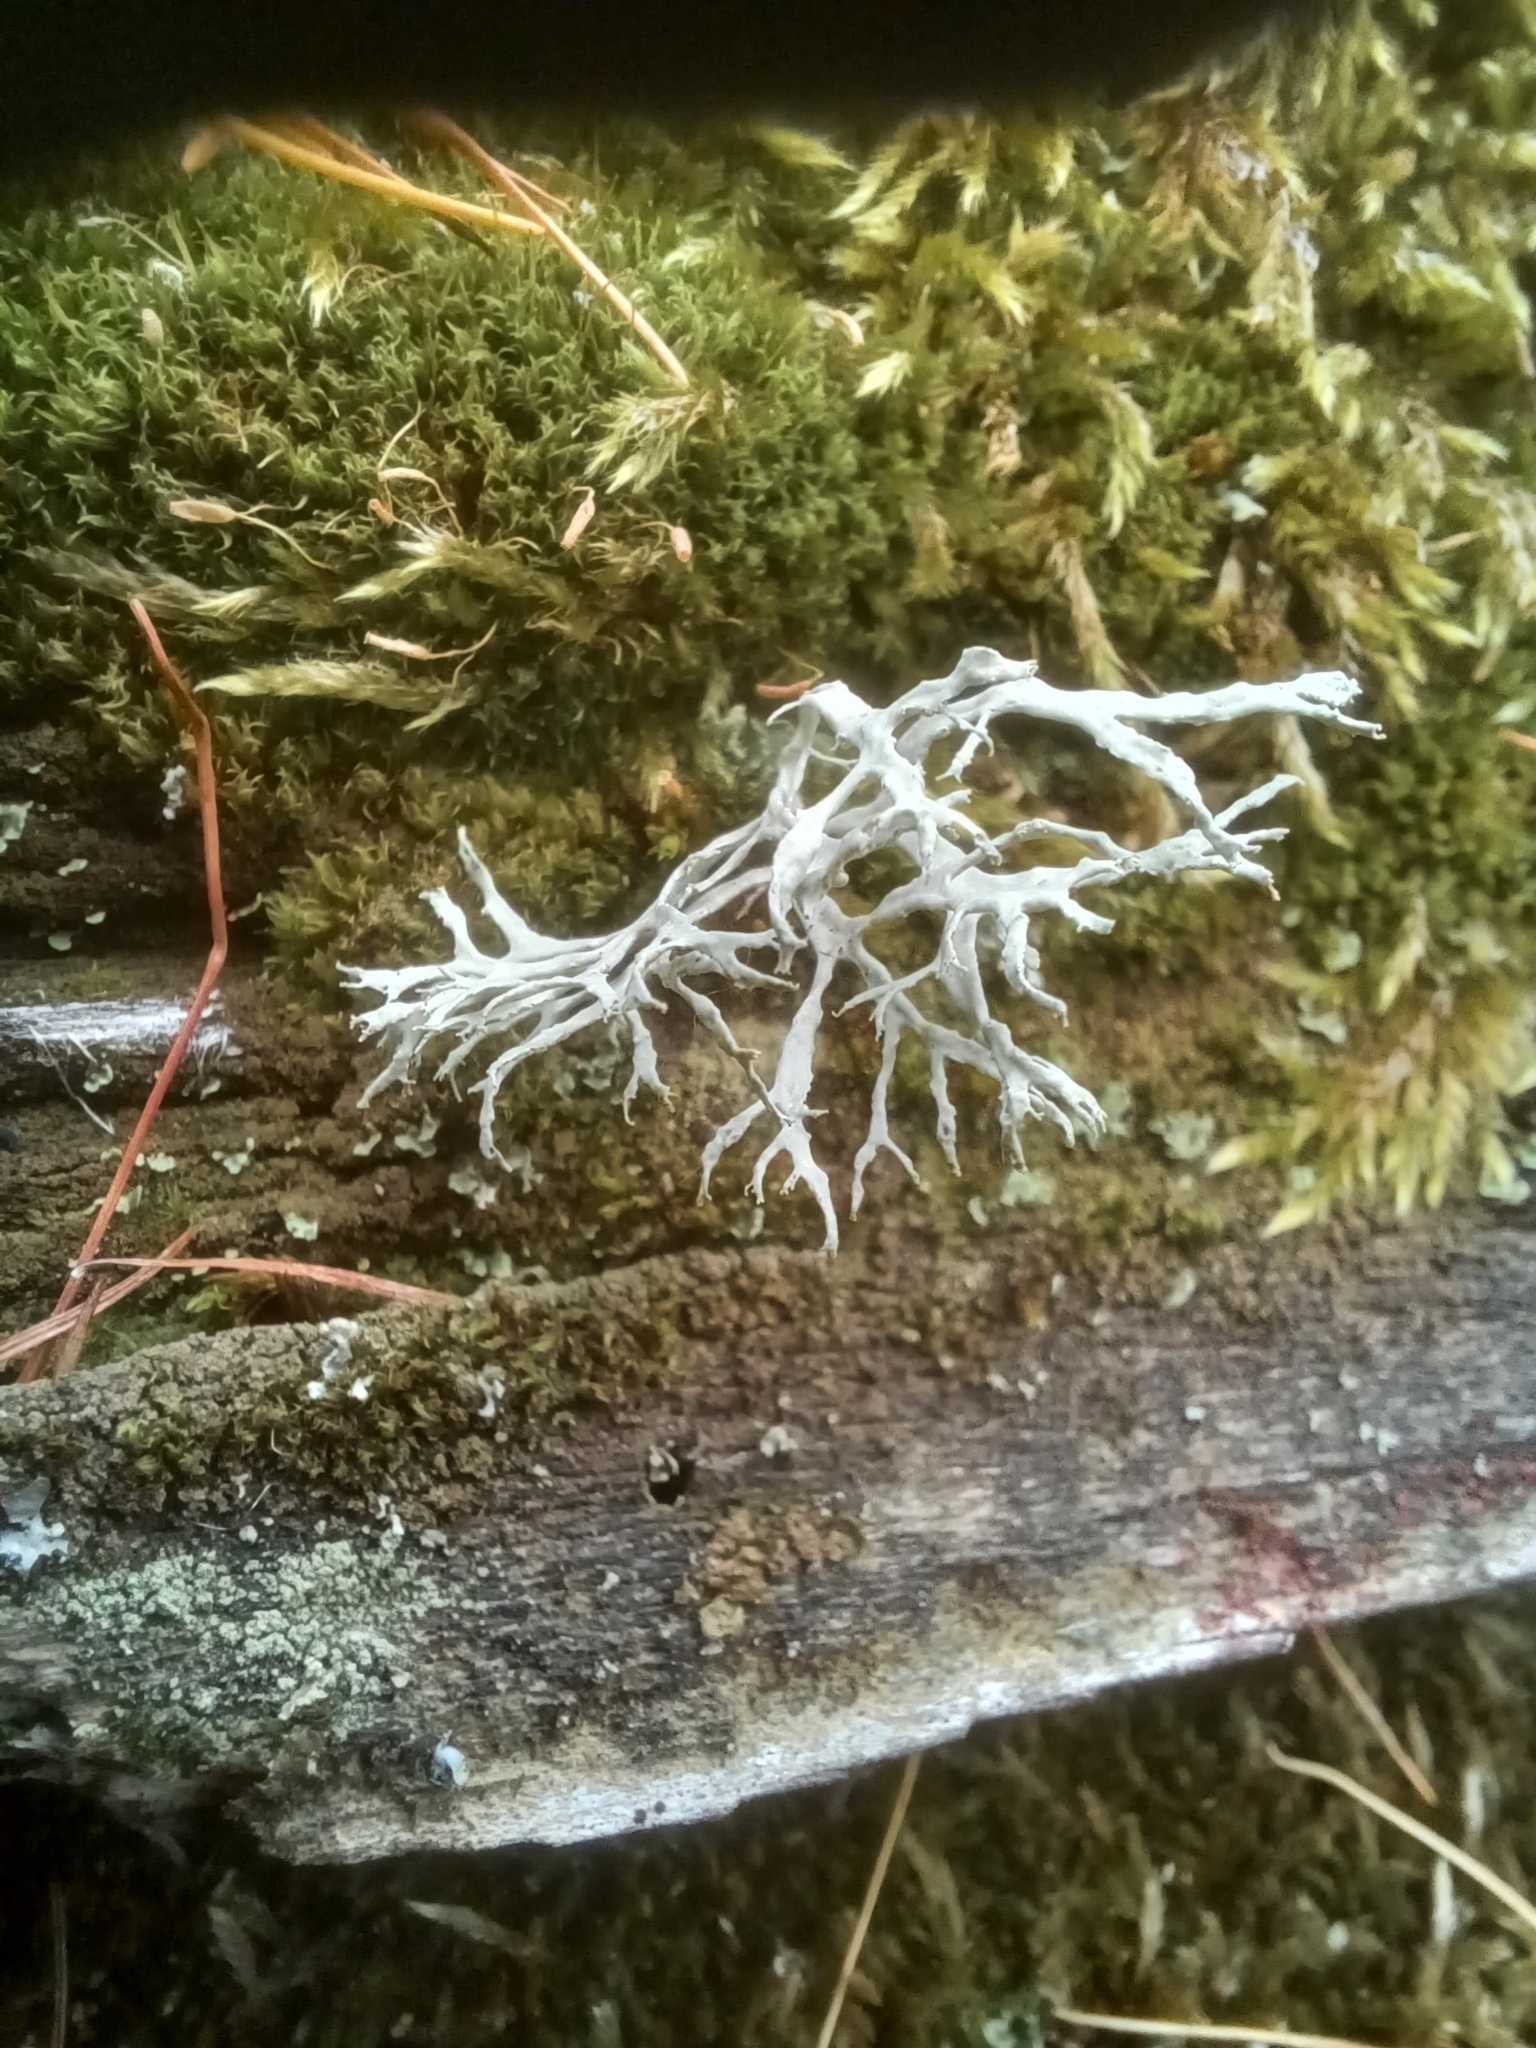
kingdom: Fungi
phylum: Ascomycota
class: Lecanoromycetes
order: Lecanorales
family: Ramalinaceae
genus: Ramalina
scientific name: Ramalina farinacea
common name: Farinose cartilage lichen
